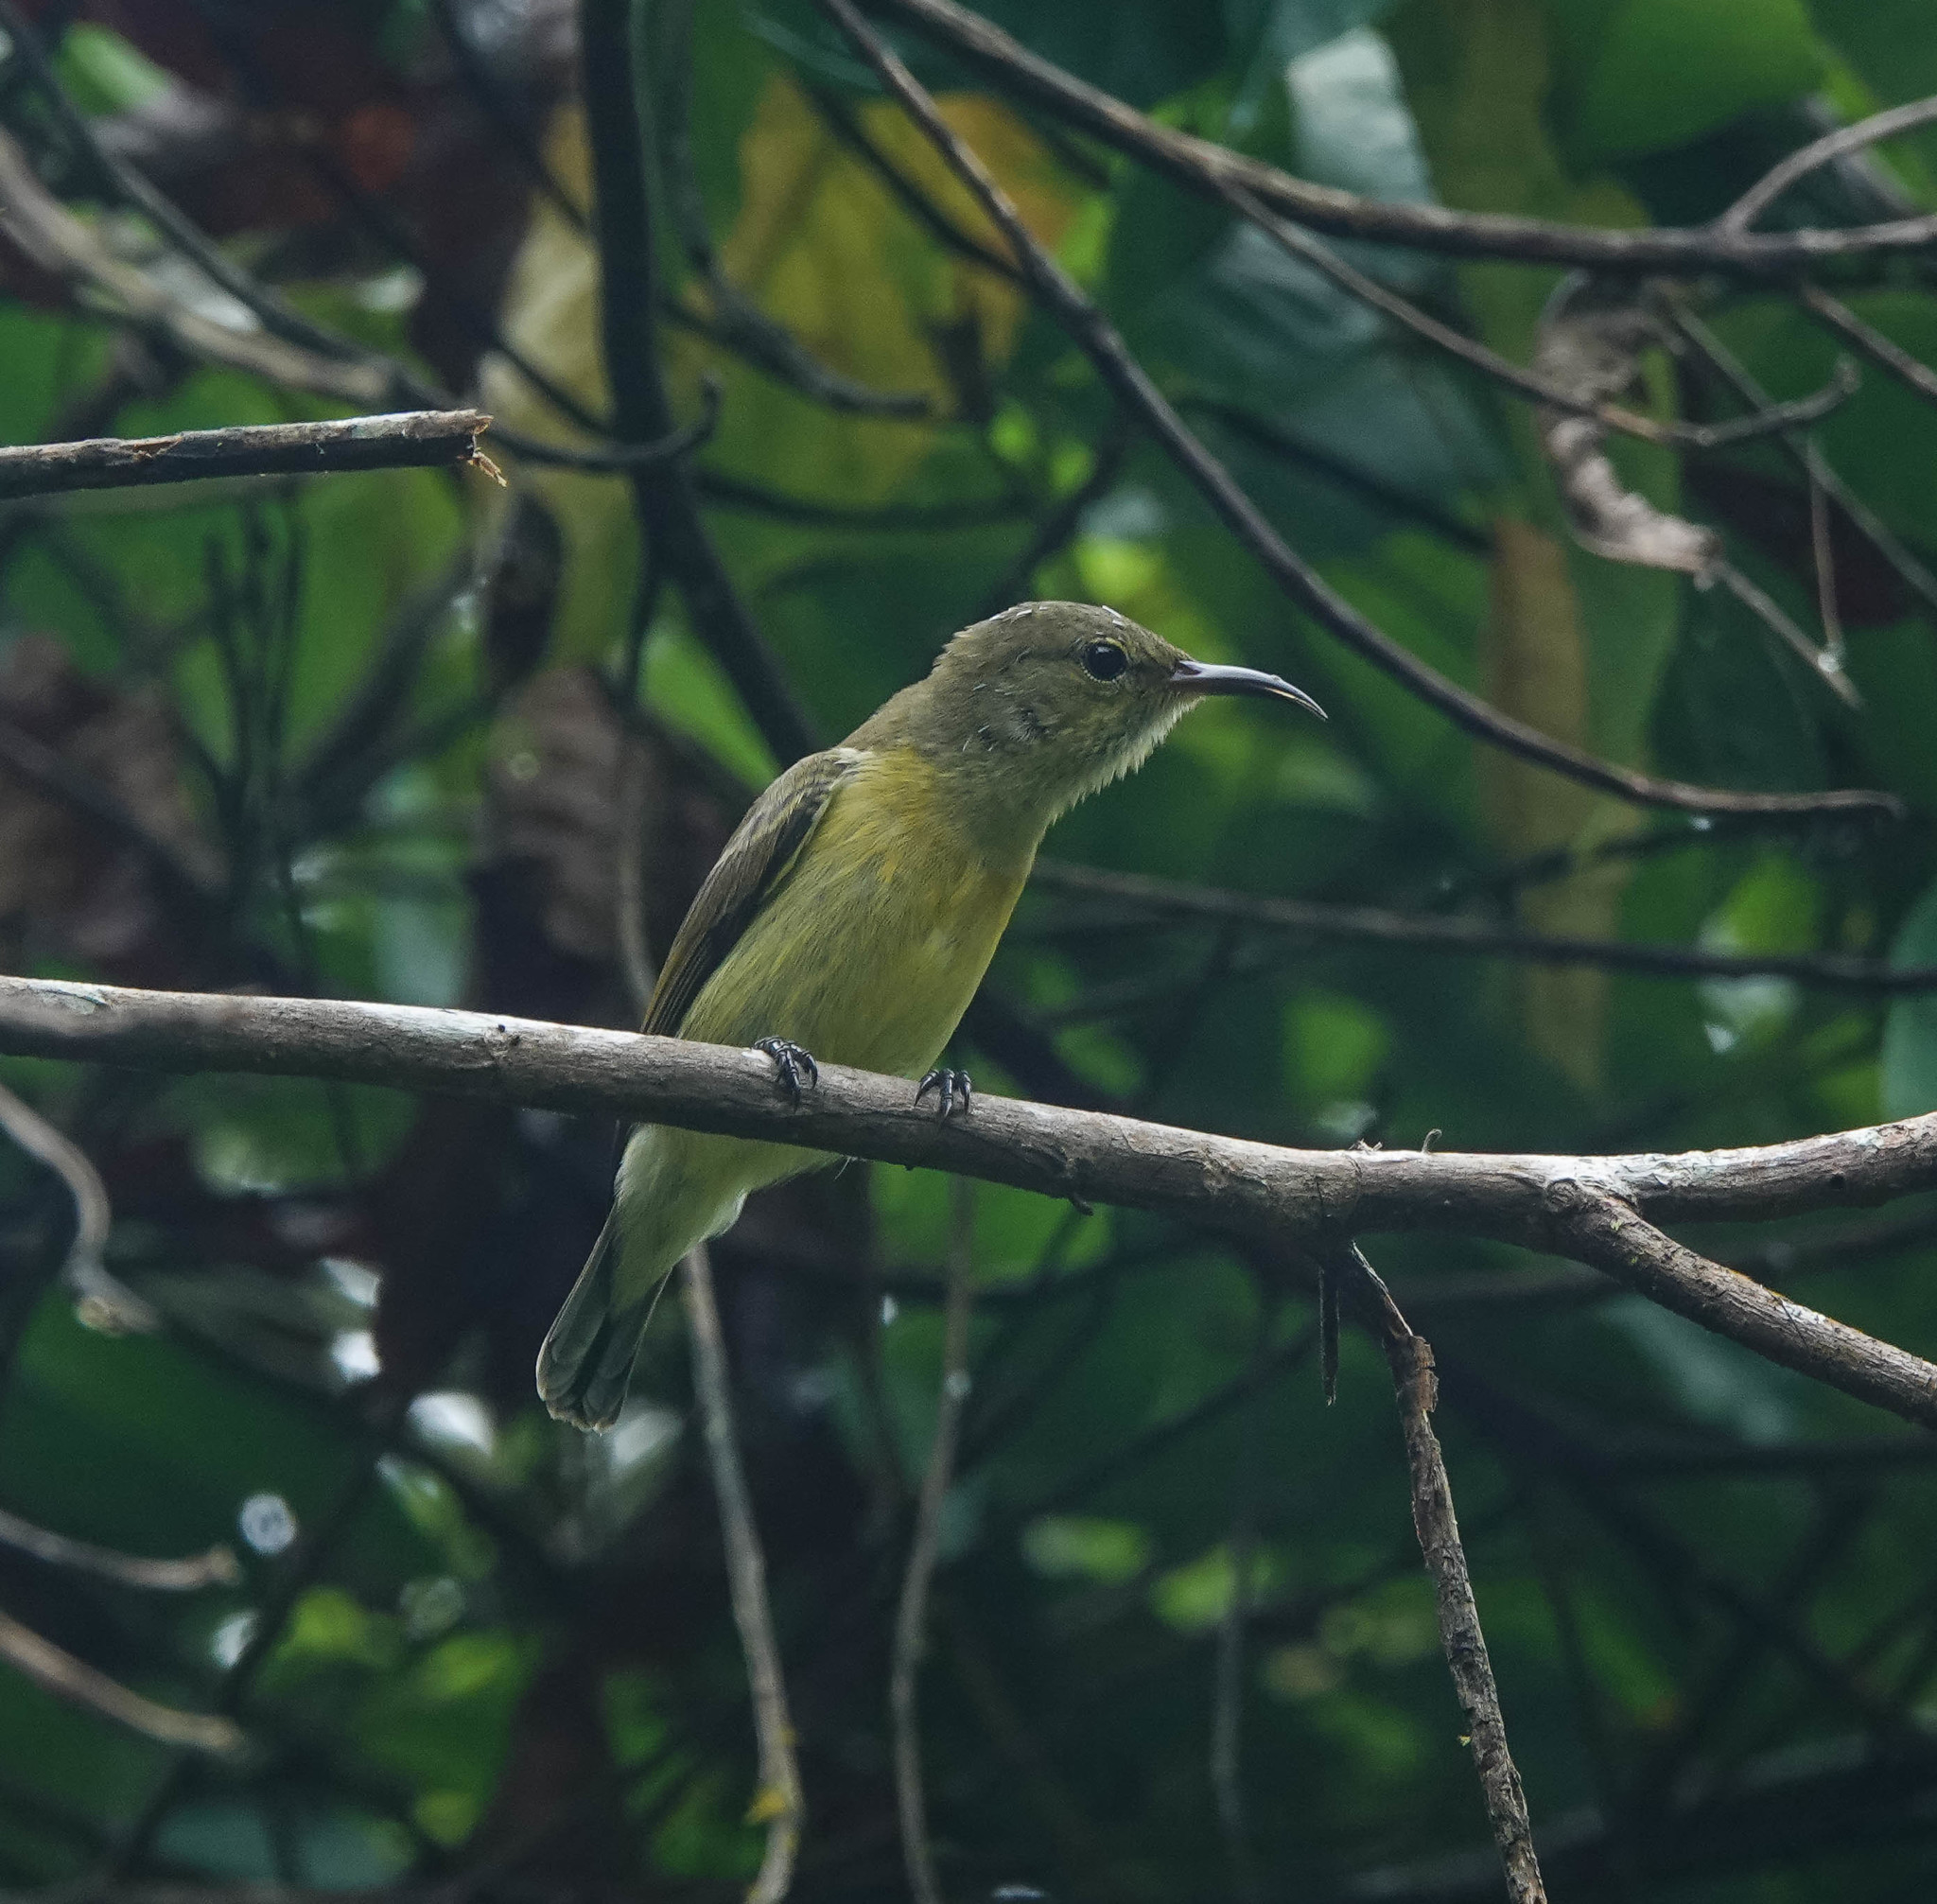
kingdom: Animalia
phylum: Chordata
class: Aves
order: Passeriformes
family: Nectariniidae
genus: Leptocoma
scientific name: Leptocoma brasiliana
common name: Van hasselt's sunbird
